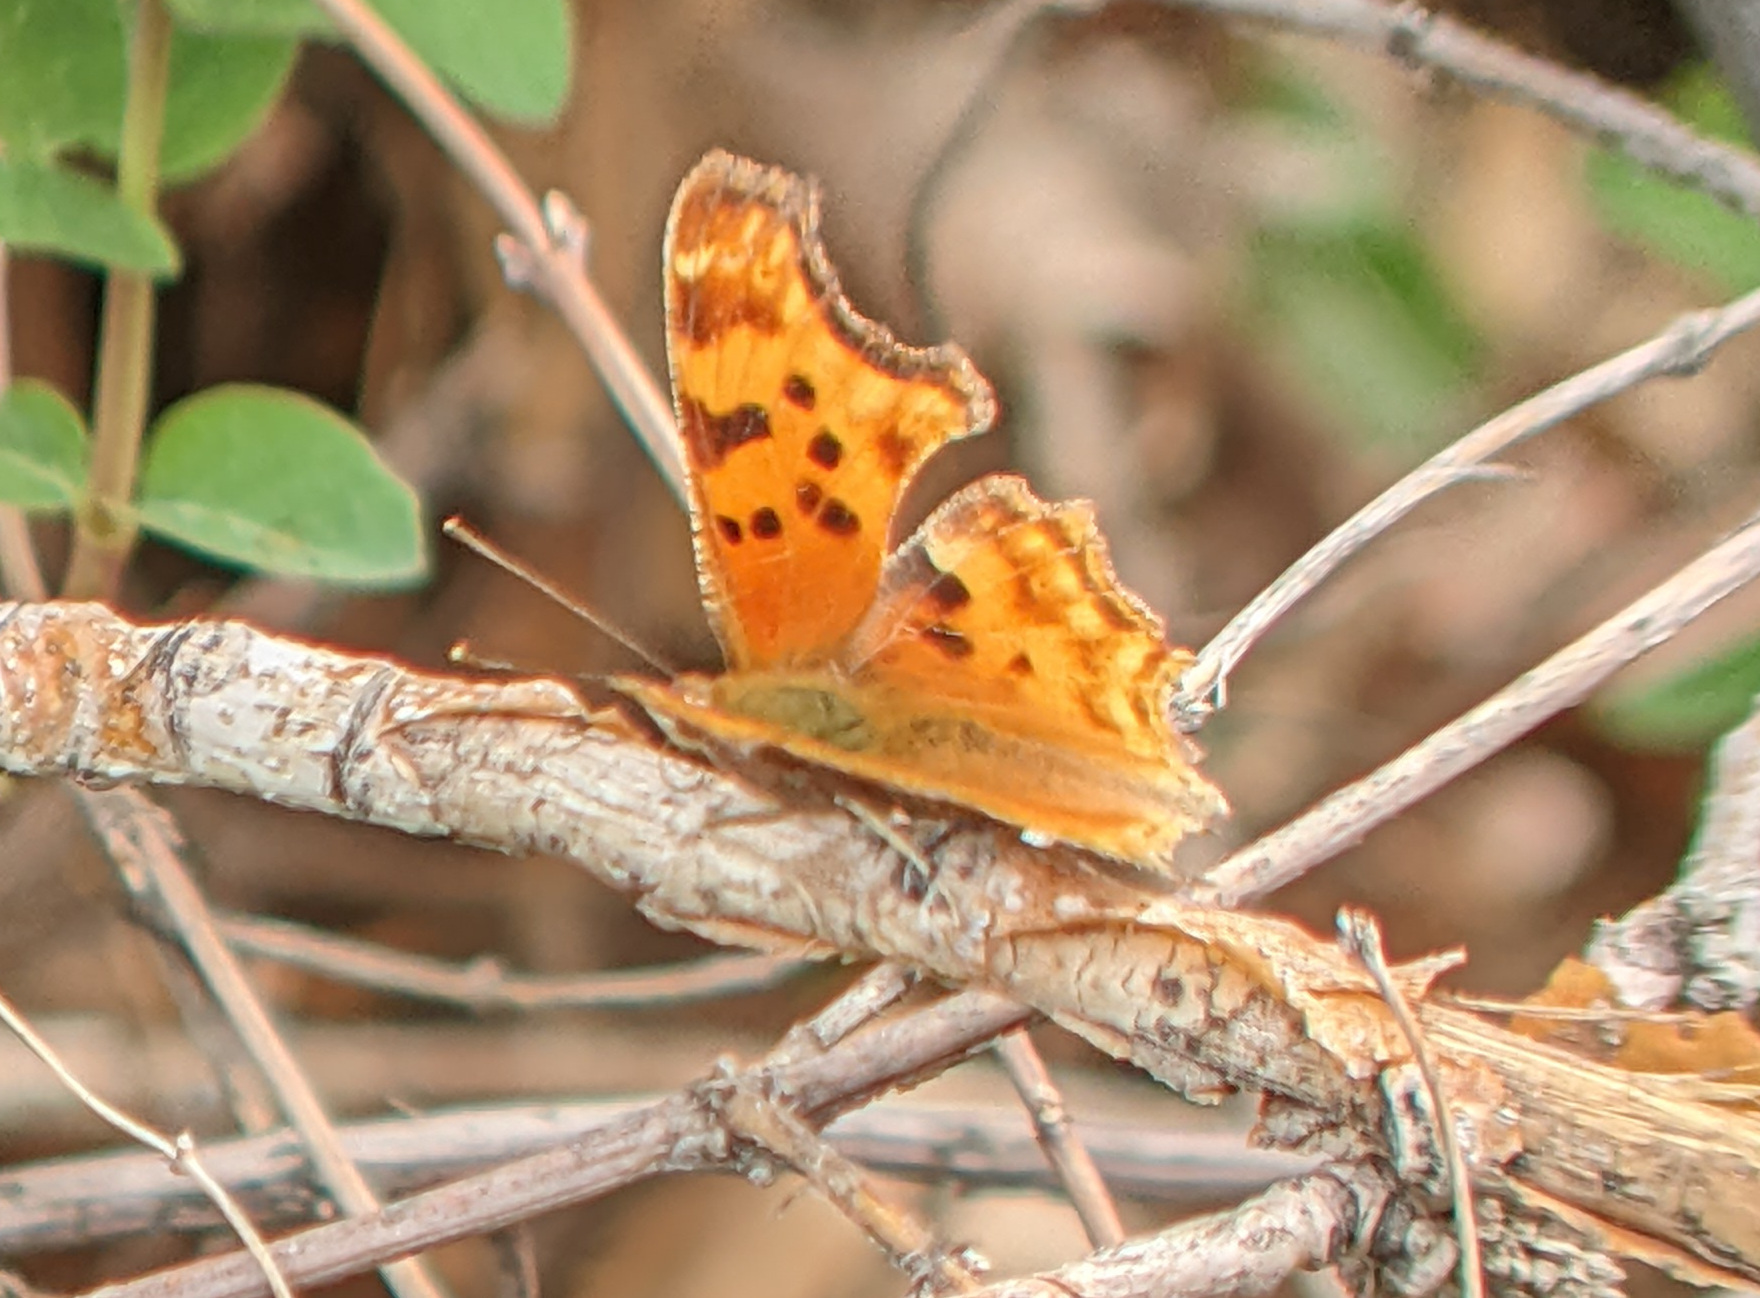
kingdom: Animalia
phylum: Arthropoda
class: Insecta
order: Lepidoptera
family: Nymphalidae
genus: Polygonia
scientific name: Polygonia satyrus
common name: Satyr angle wing
